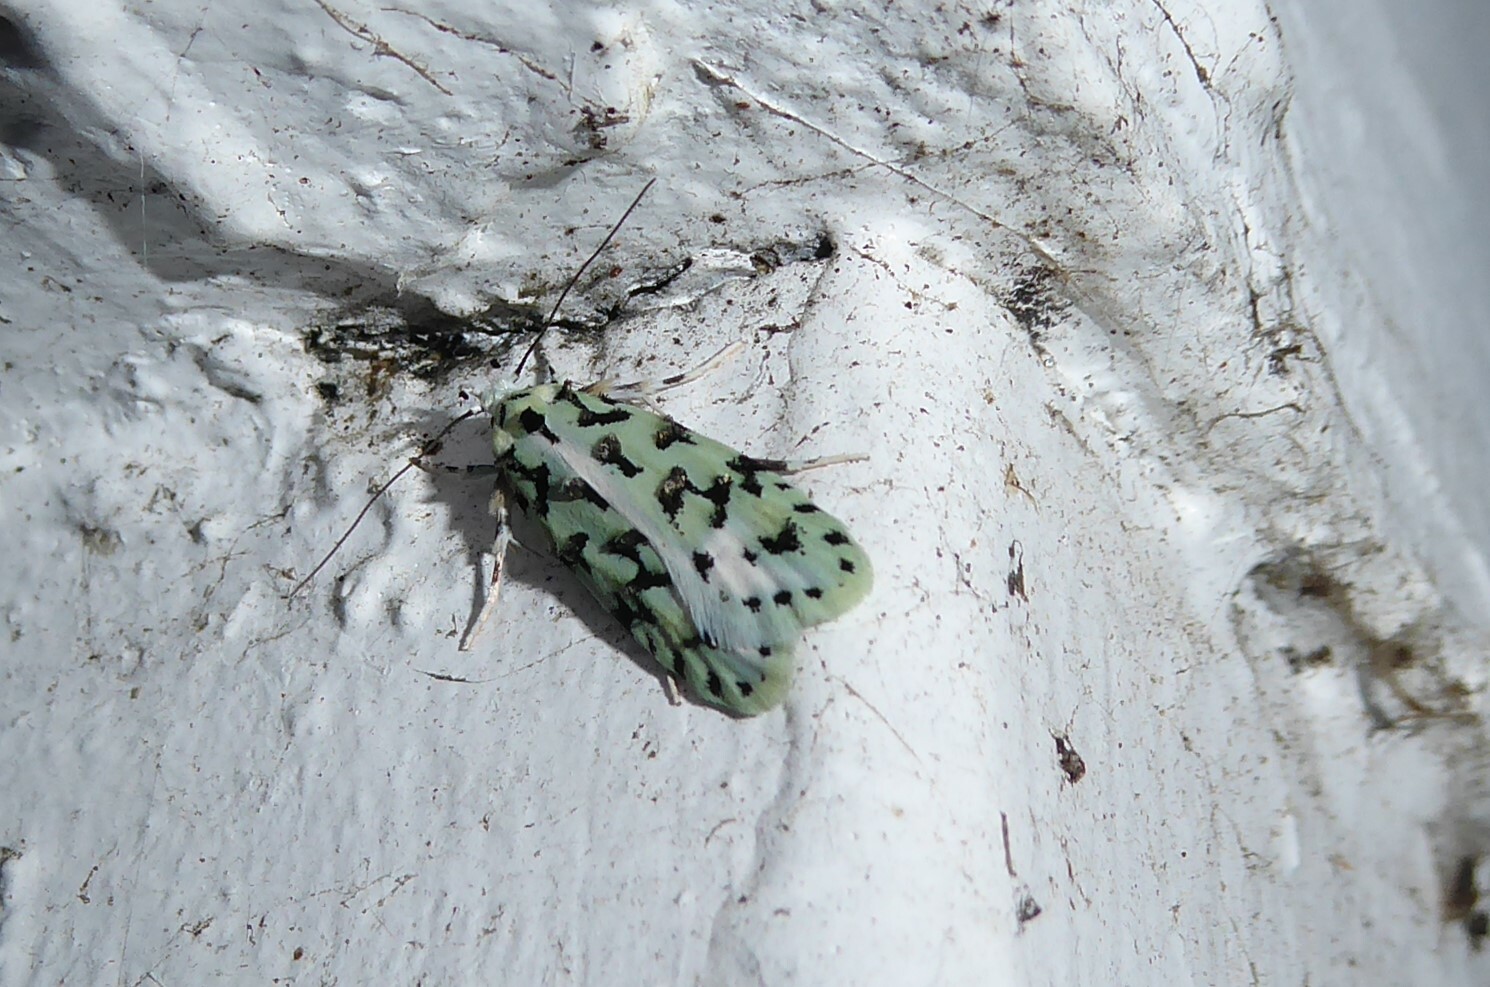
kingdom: Animalia
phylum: Arthropoda
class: Insecta
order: Lepidoptera
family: Oecophoridae
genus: Izatha
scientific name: Izatha huttoni
